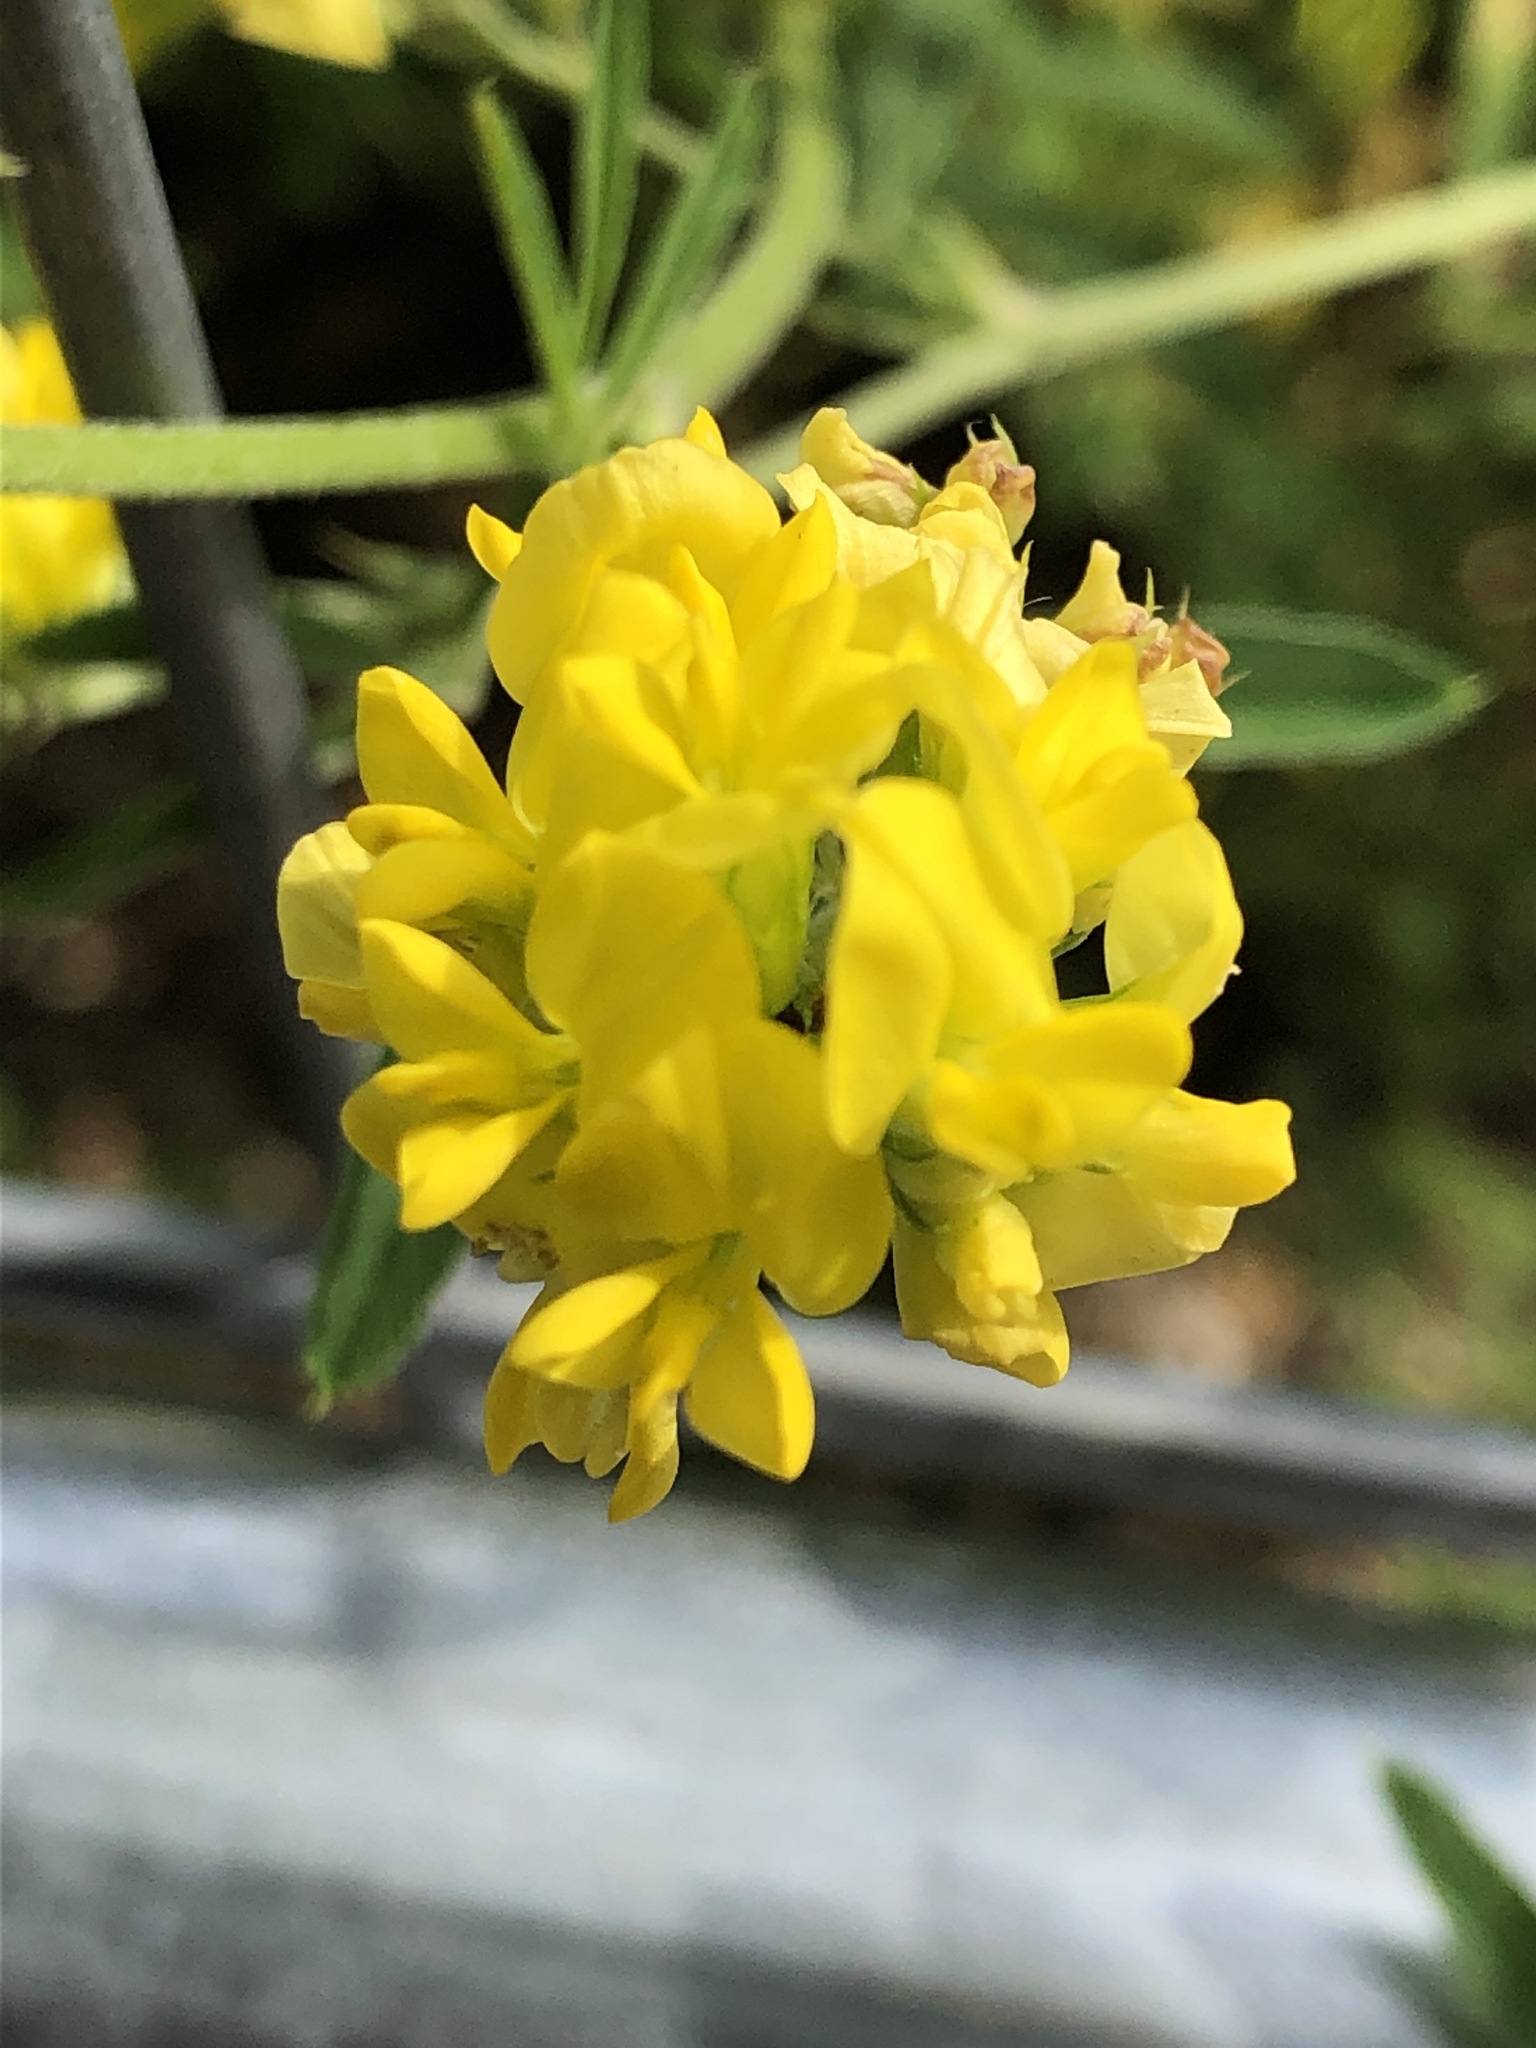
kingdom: Plantae
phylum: Tracheophyta
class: Magnoliopsida
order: Fabales
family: Fabaceae
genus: Medicago
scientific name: Medicago falcata
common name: Sickle medick
